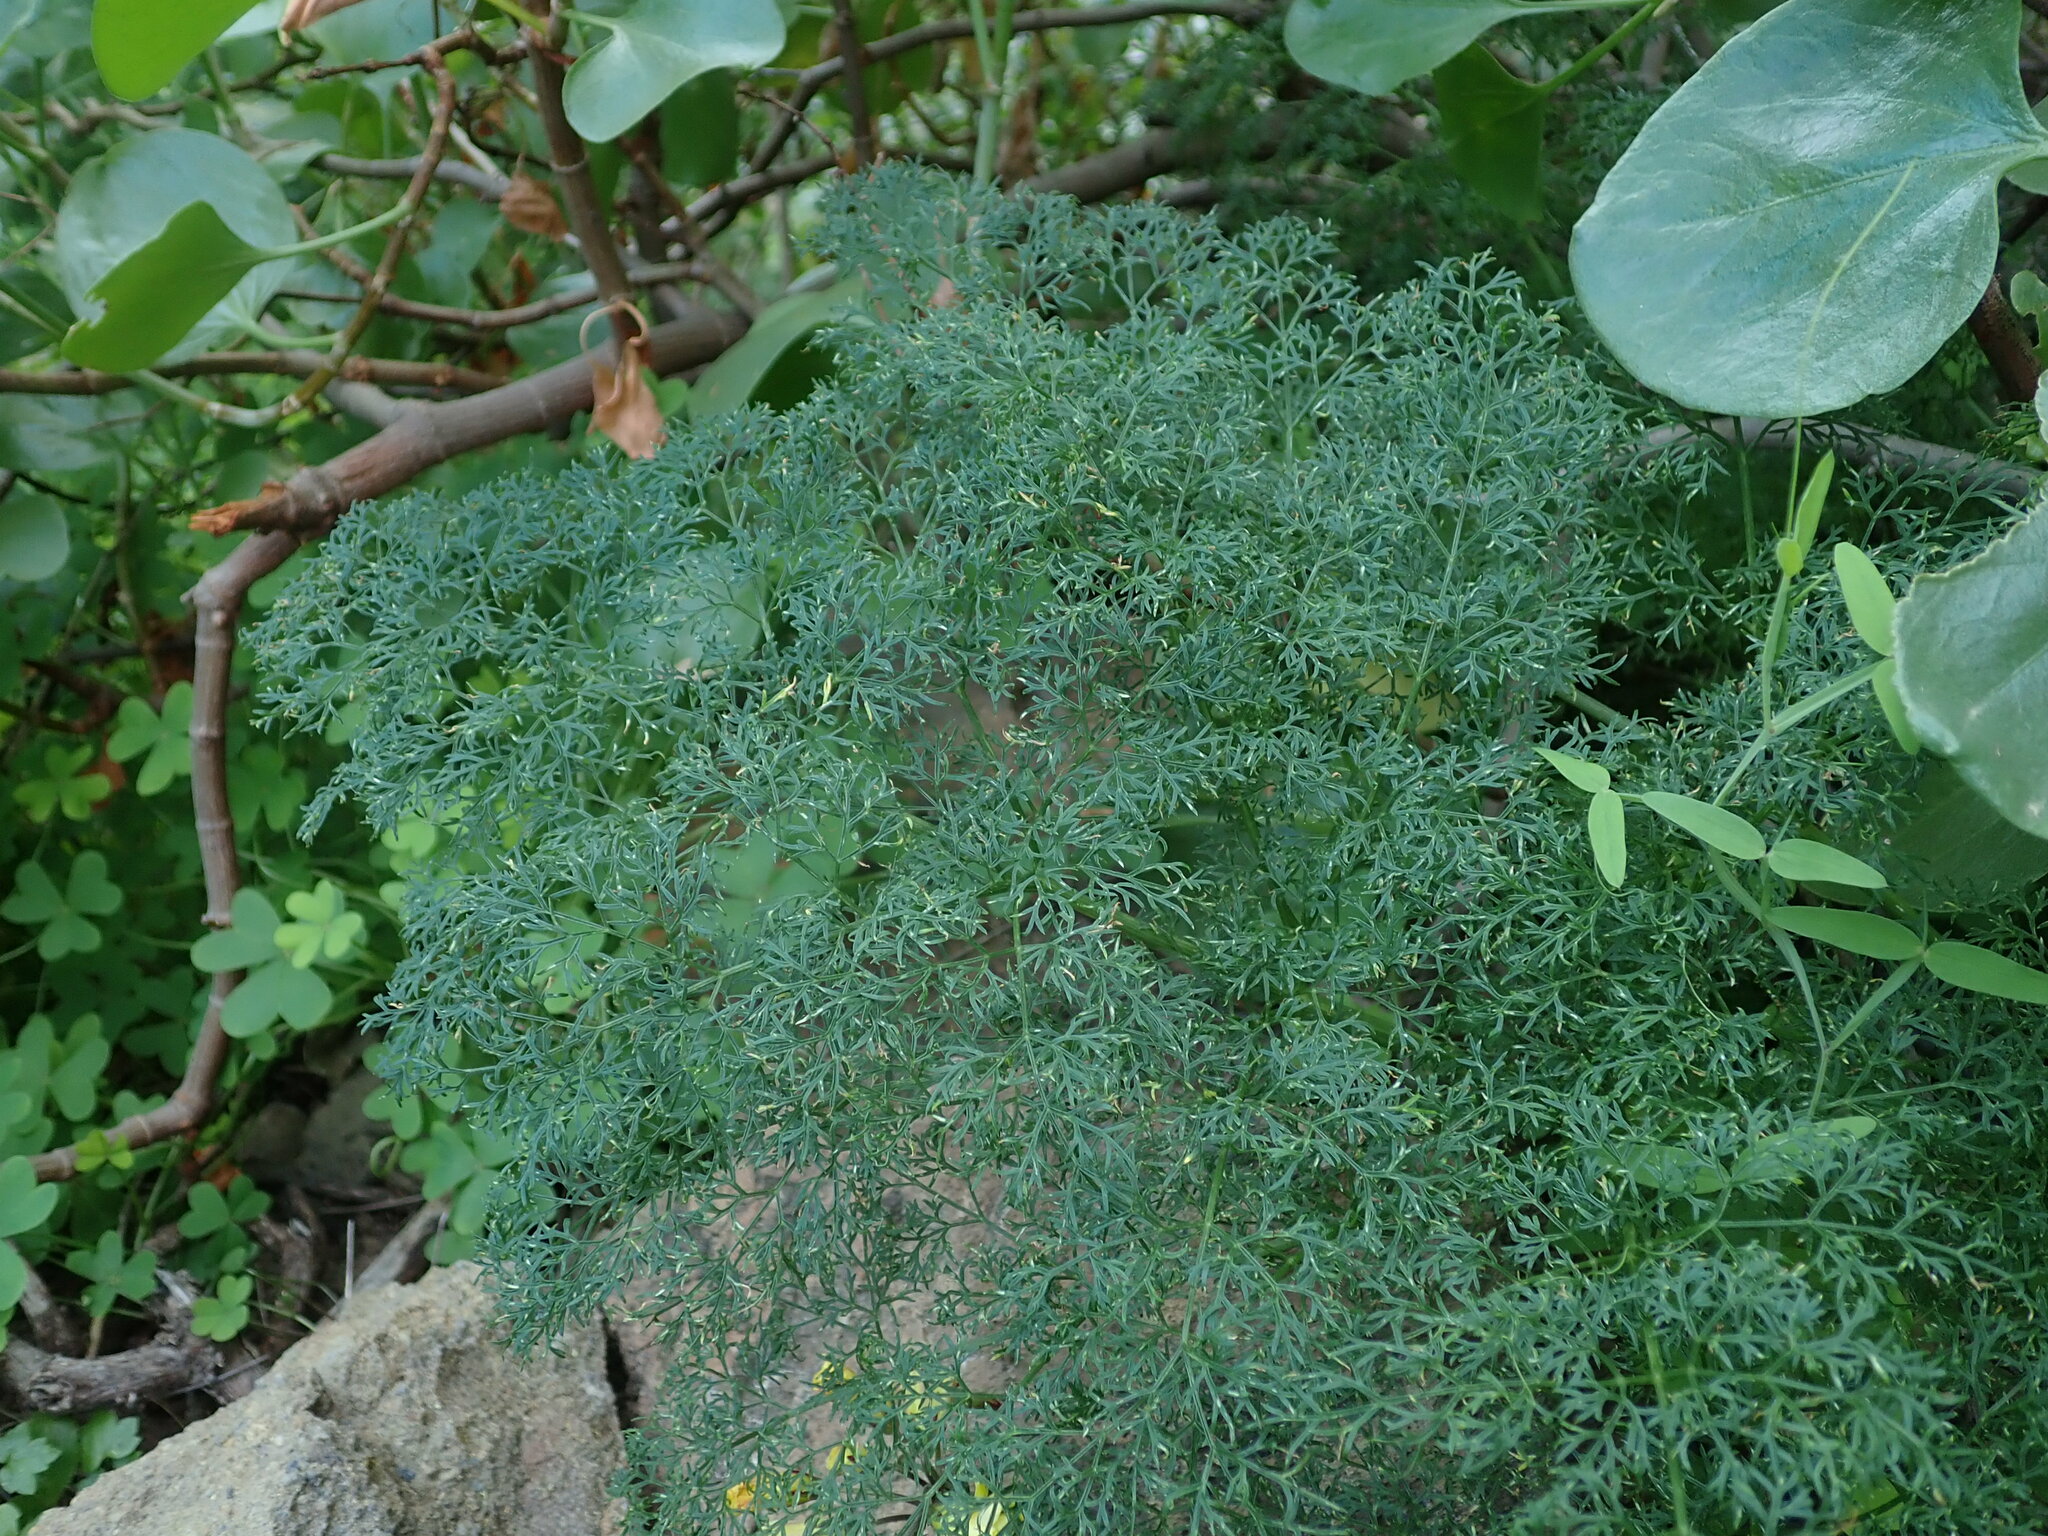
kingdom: Plantae
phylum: Tracheophyta
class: Magnoliopsida
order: Apiales
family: Apiaceae
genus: Ferula
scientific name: Ferula communis
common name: Giant fennel
